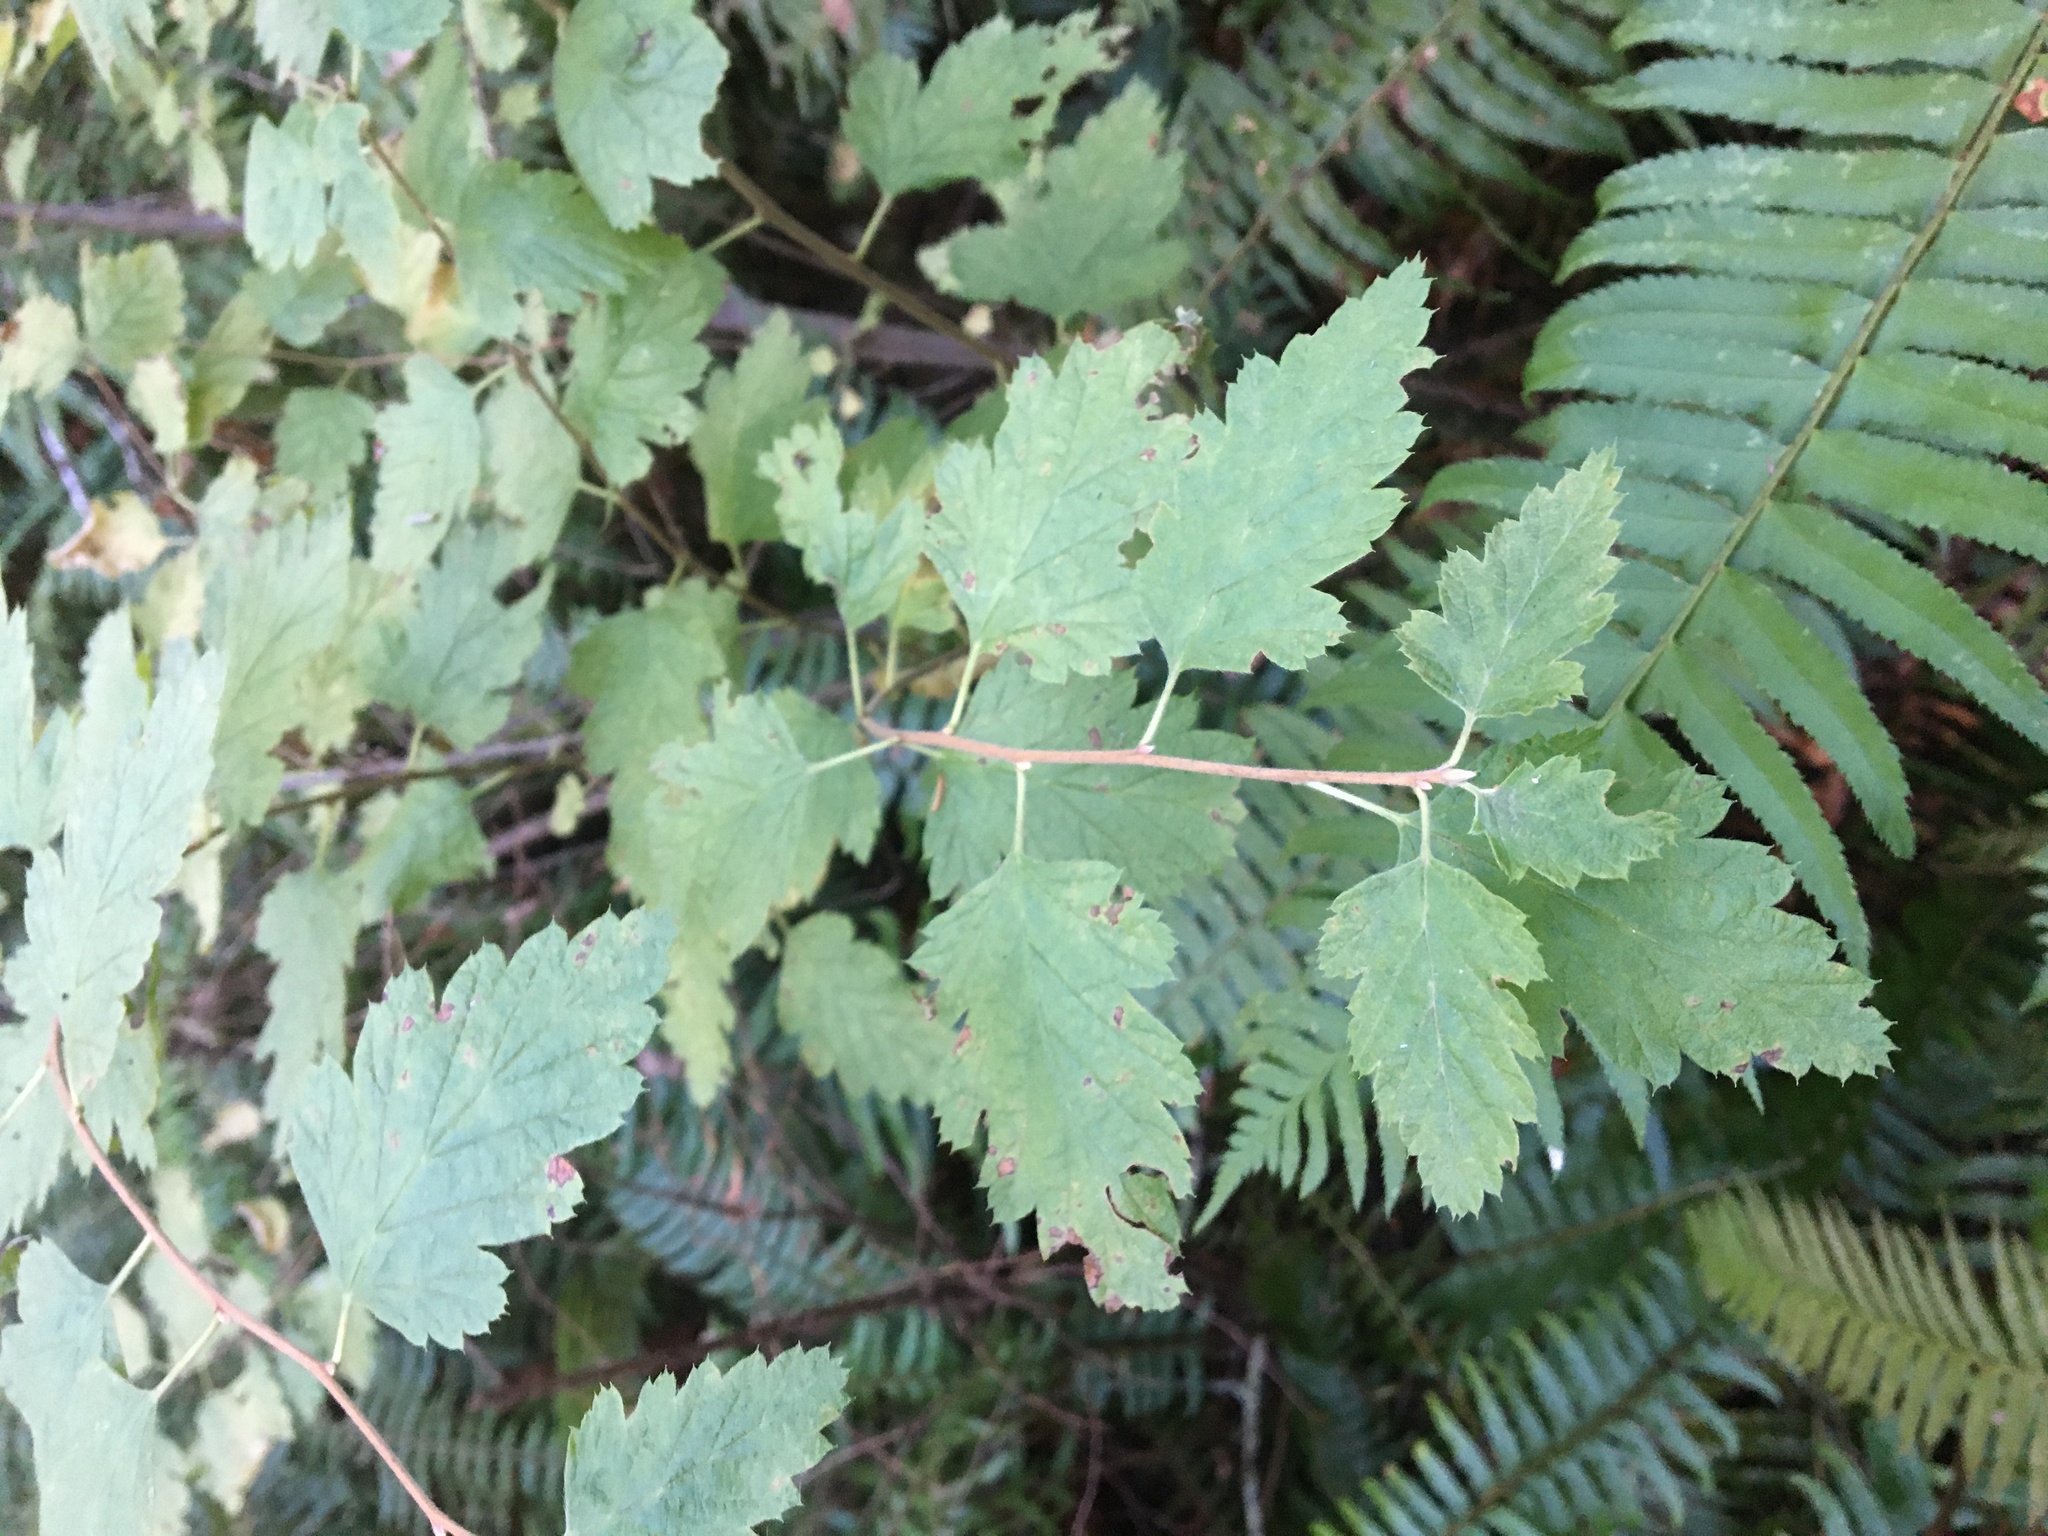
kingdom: Plantae
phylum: Tracheophyta
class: Magnoliopsida
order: Rosales
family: Rosaceae
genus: Holodiscus
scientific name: Holodiscus discolor
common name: Oceanspray
